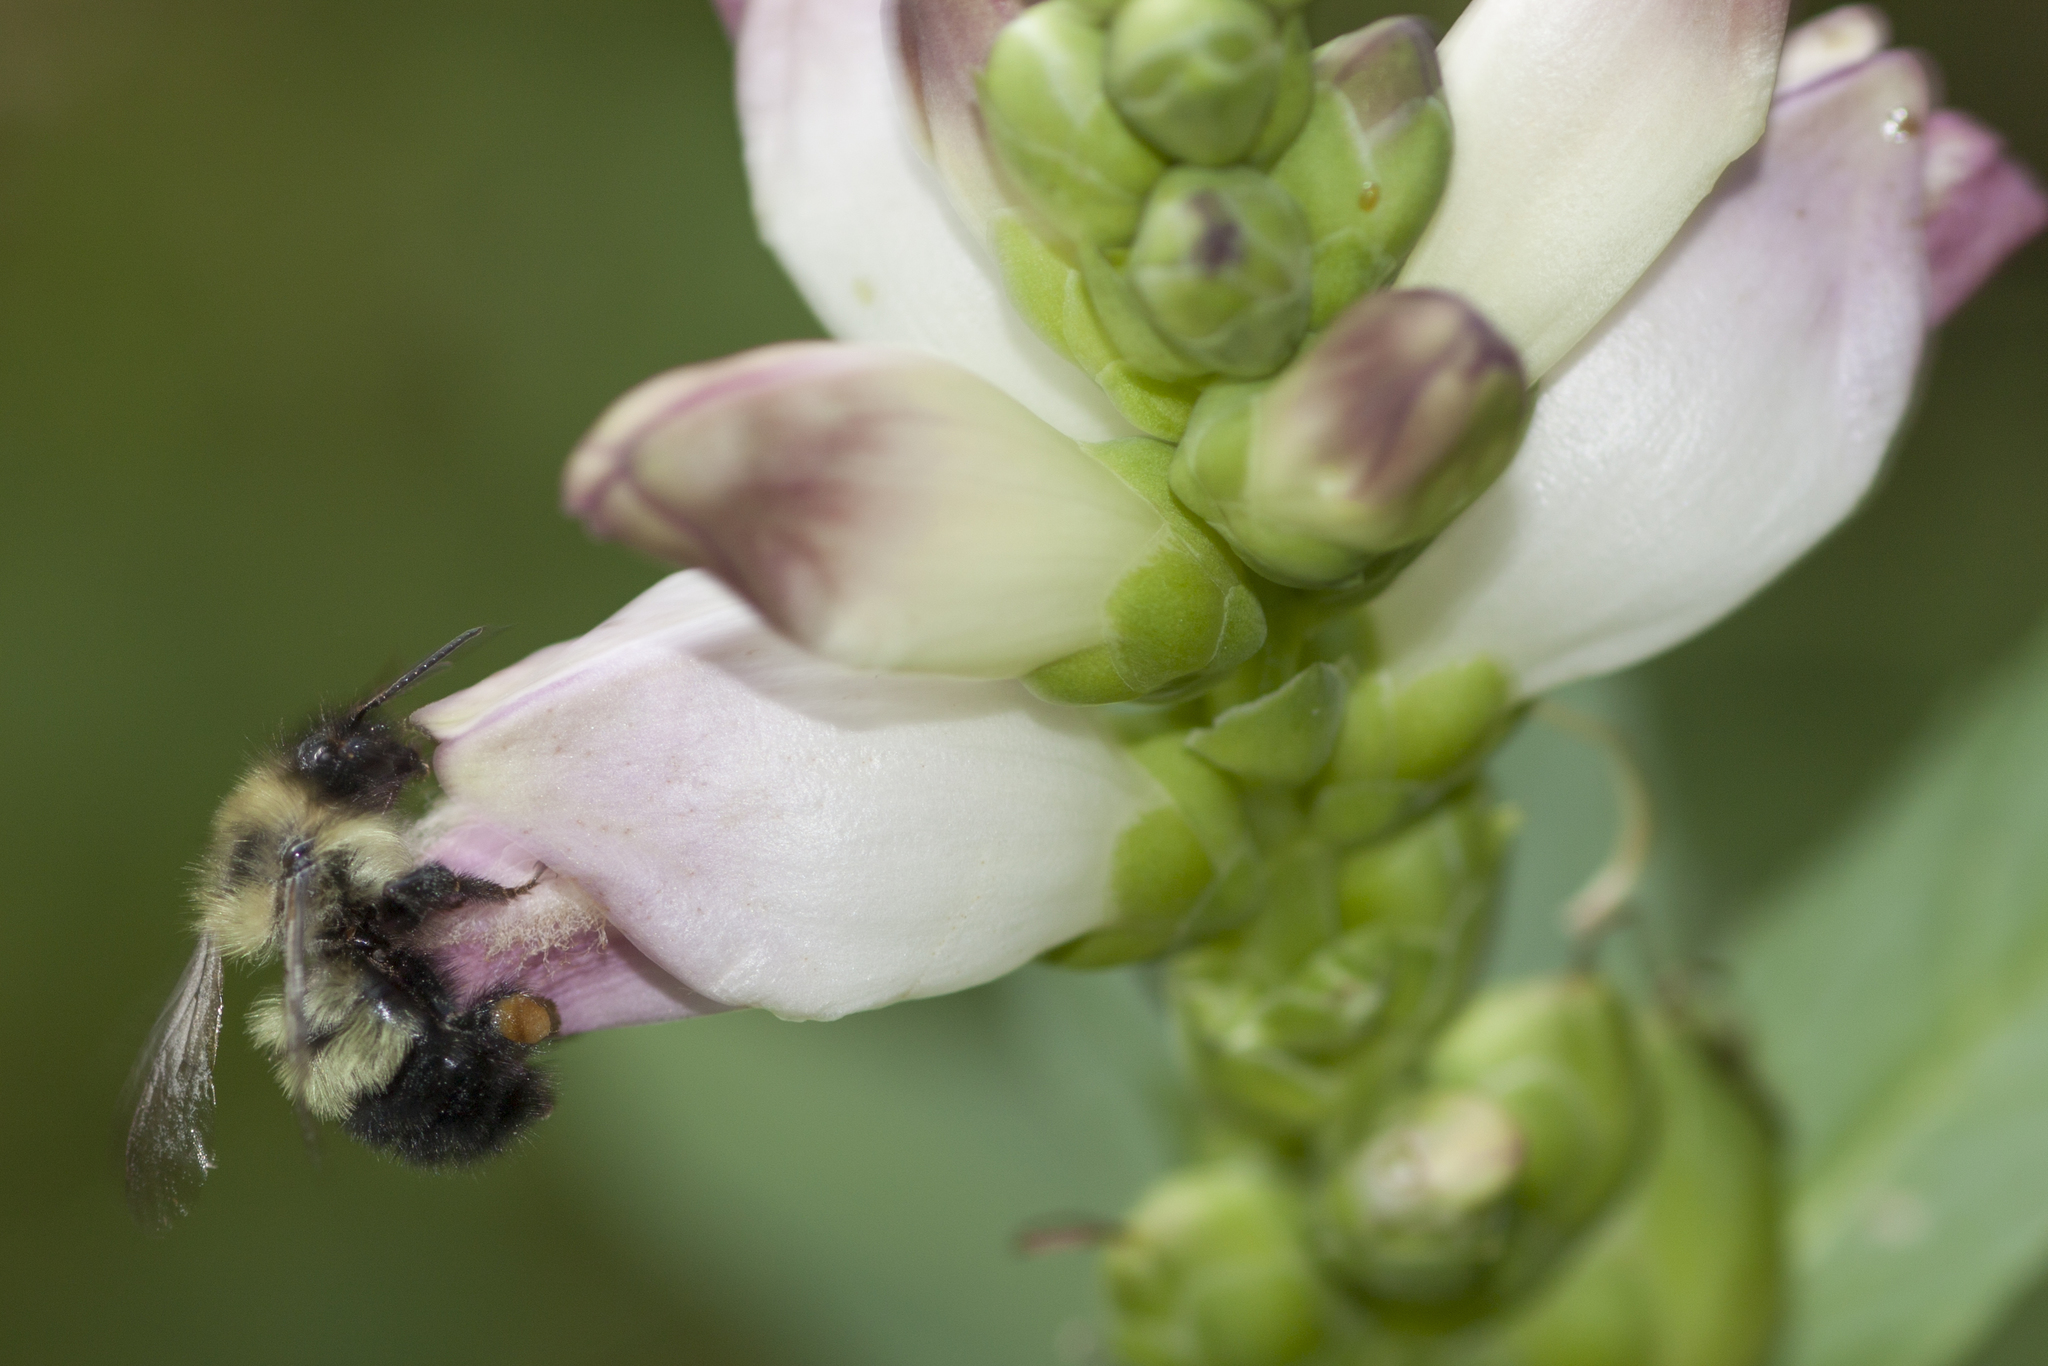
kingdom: Animalia
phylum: Arthropoda
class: Insecta
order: Hymenoptera
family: Apidae
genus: Bombus
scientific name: Bombus vagans
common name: Half-black bumble bee
